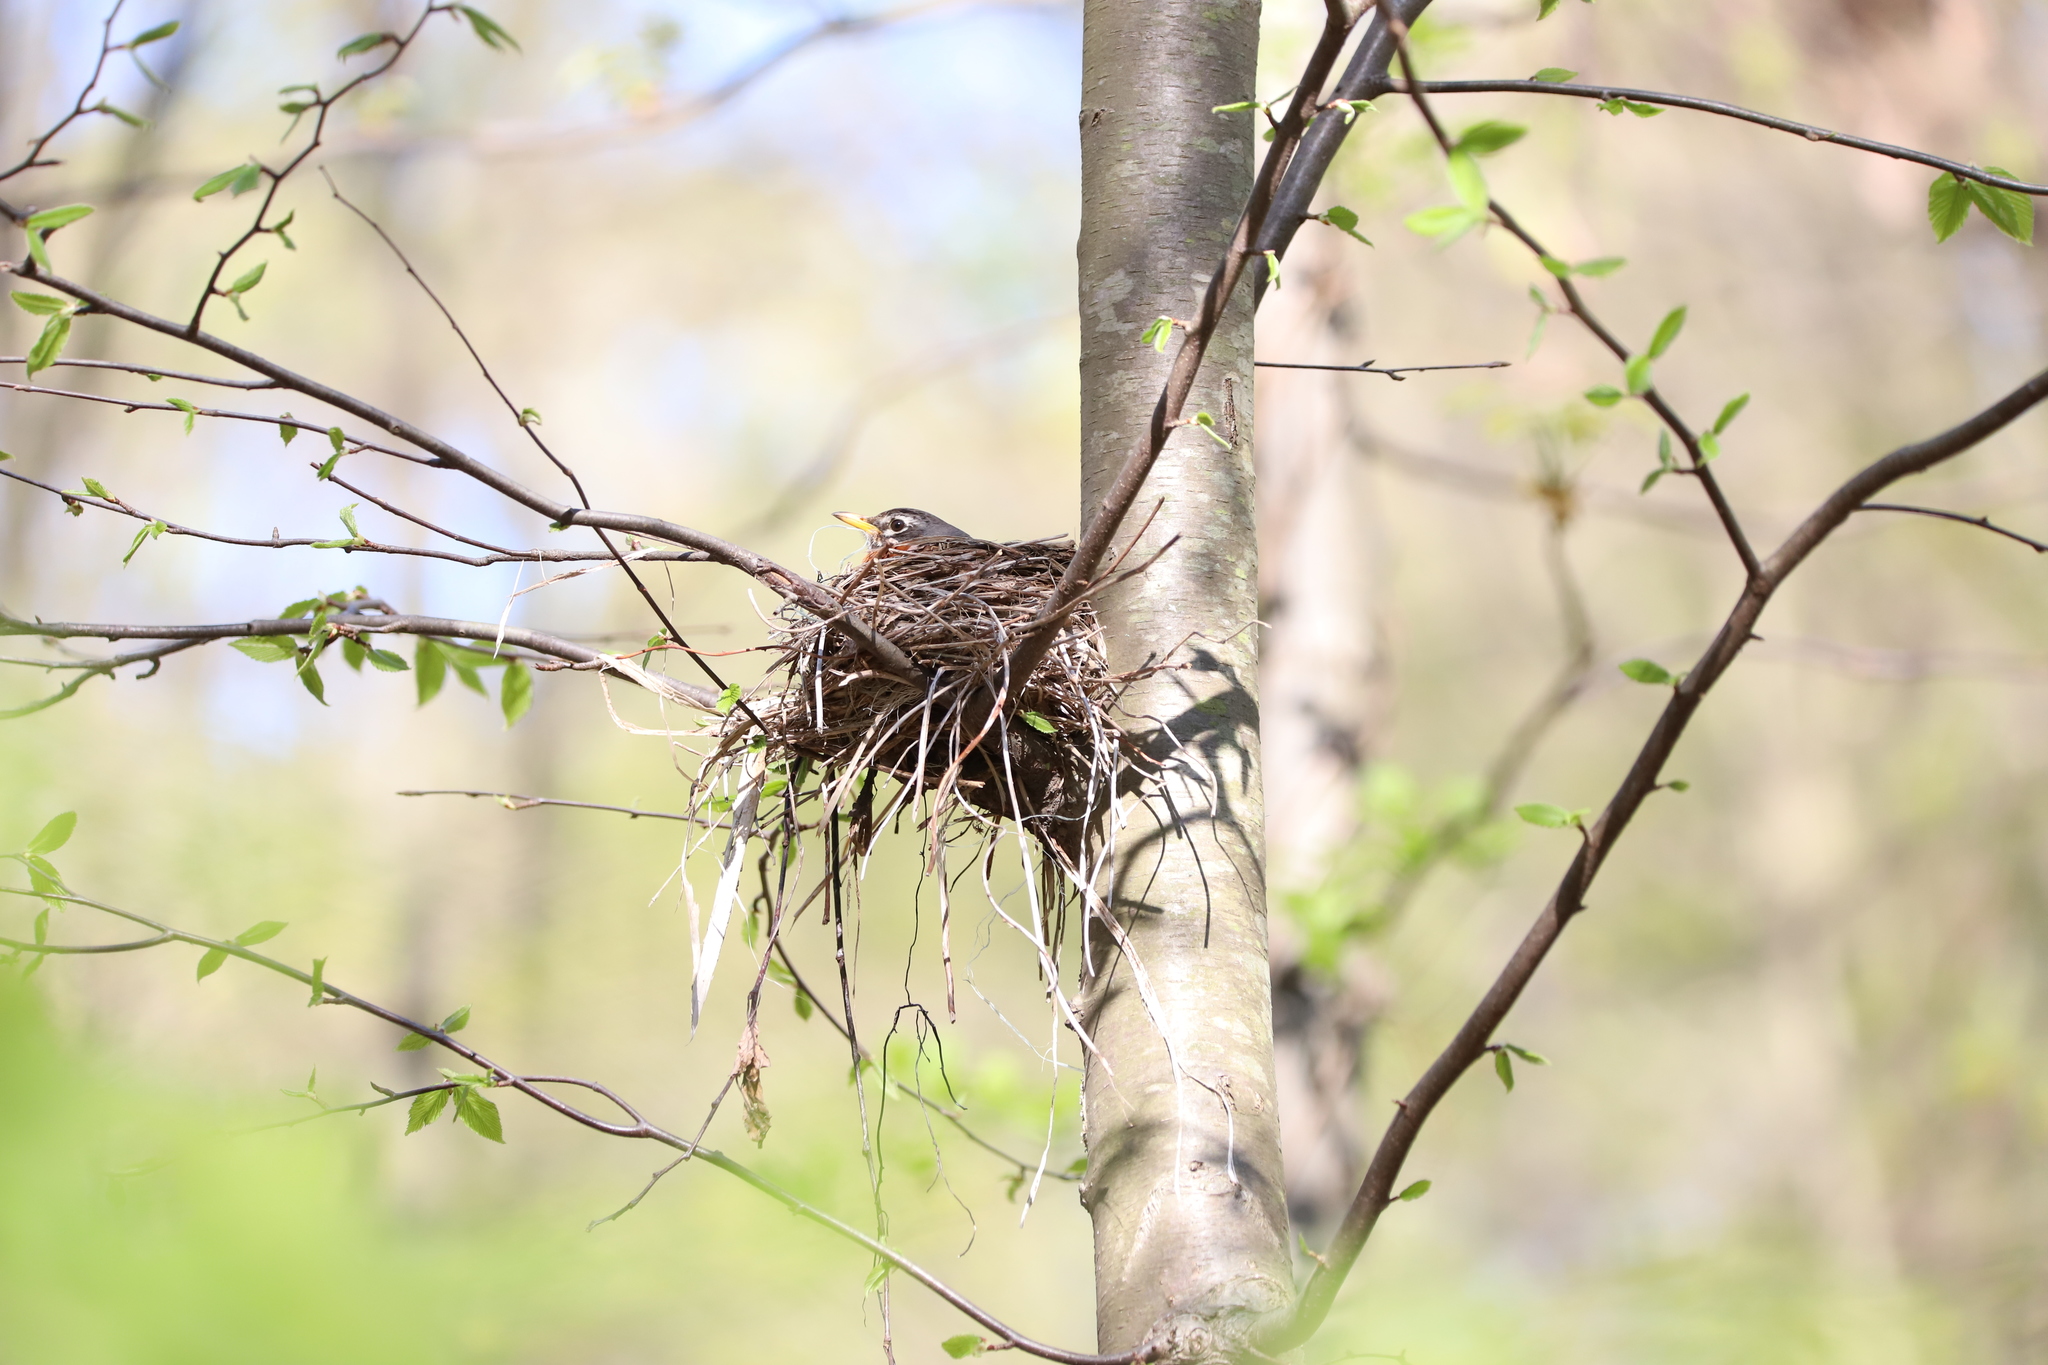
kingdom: Animalia
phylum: Chordata
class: Aves
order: Passeriformes
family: Turdidae
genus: Turdus
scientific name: Turdus migratorius
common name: American robin
